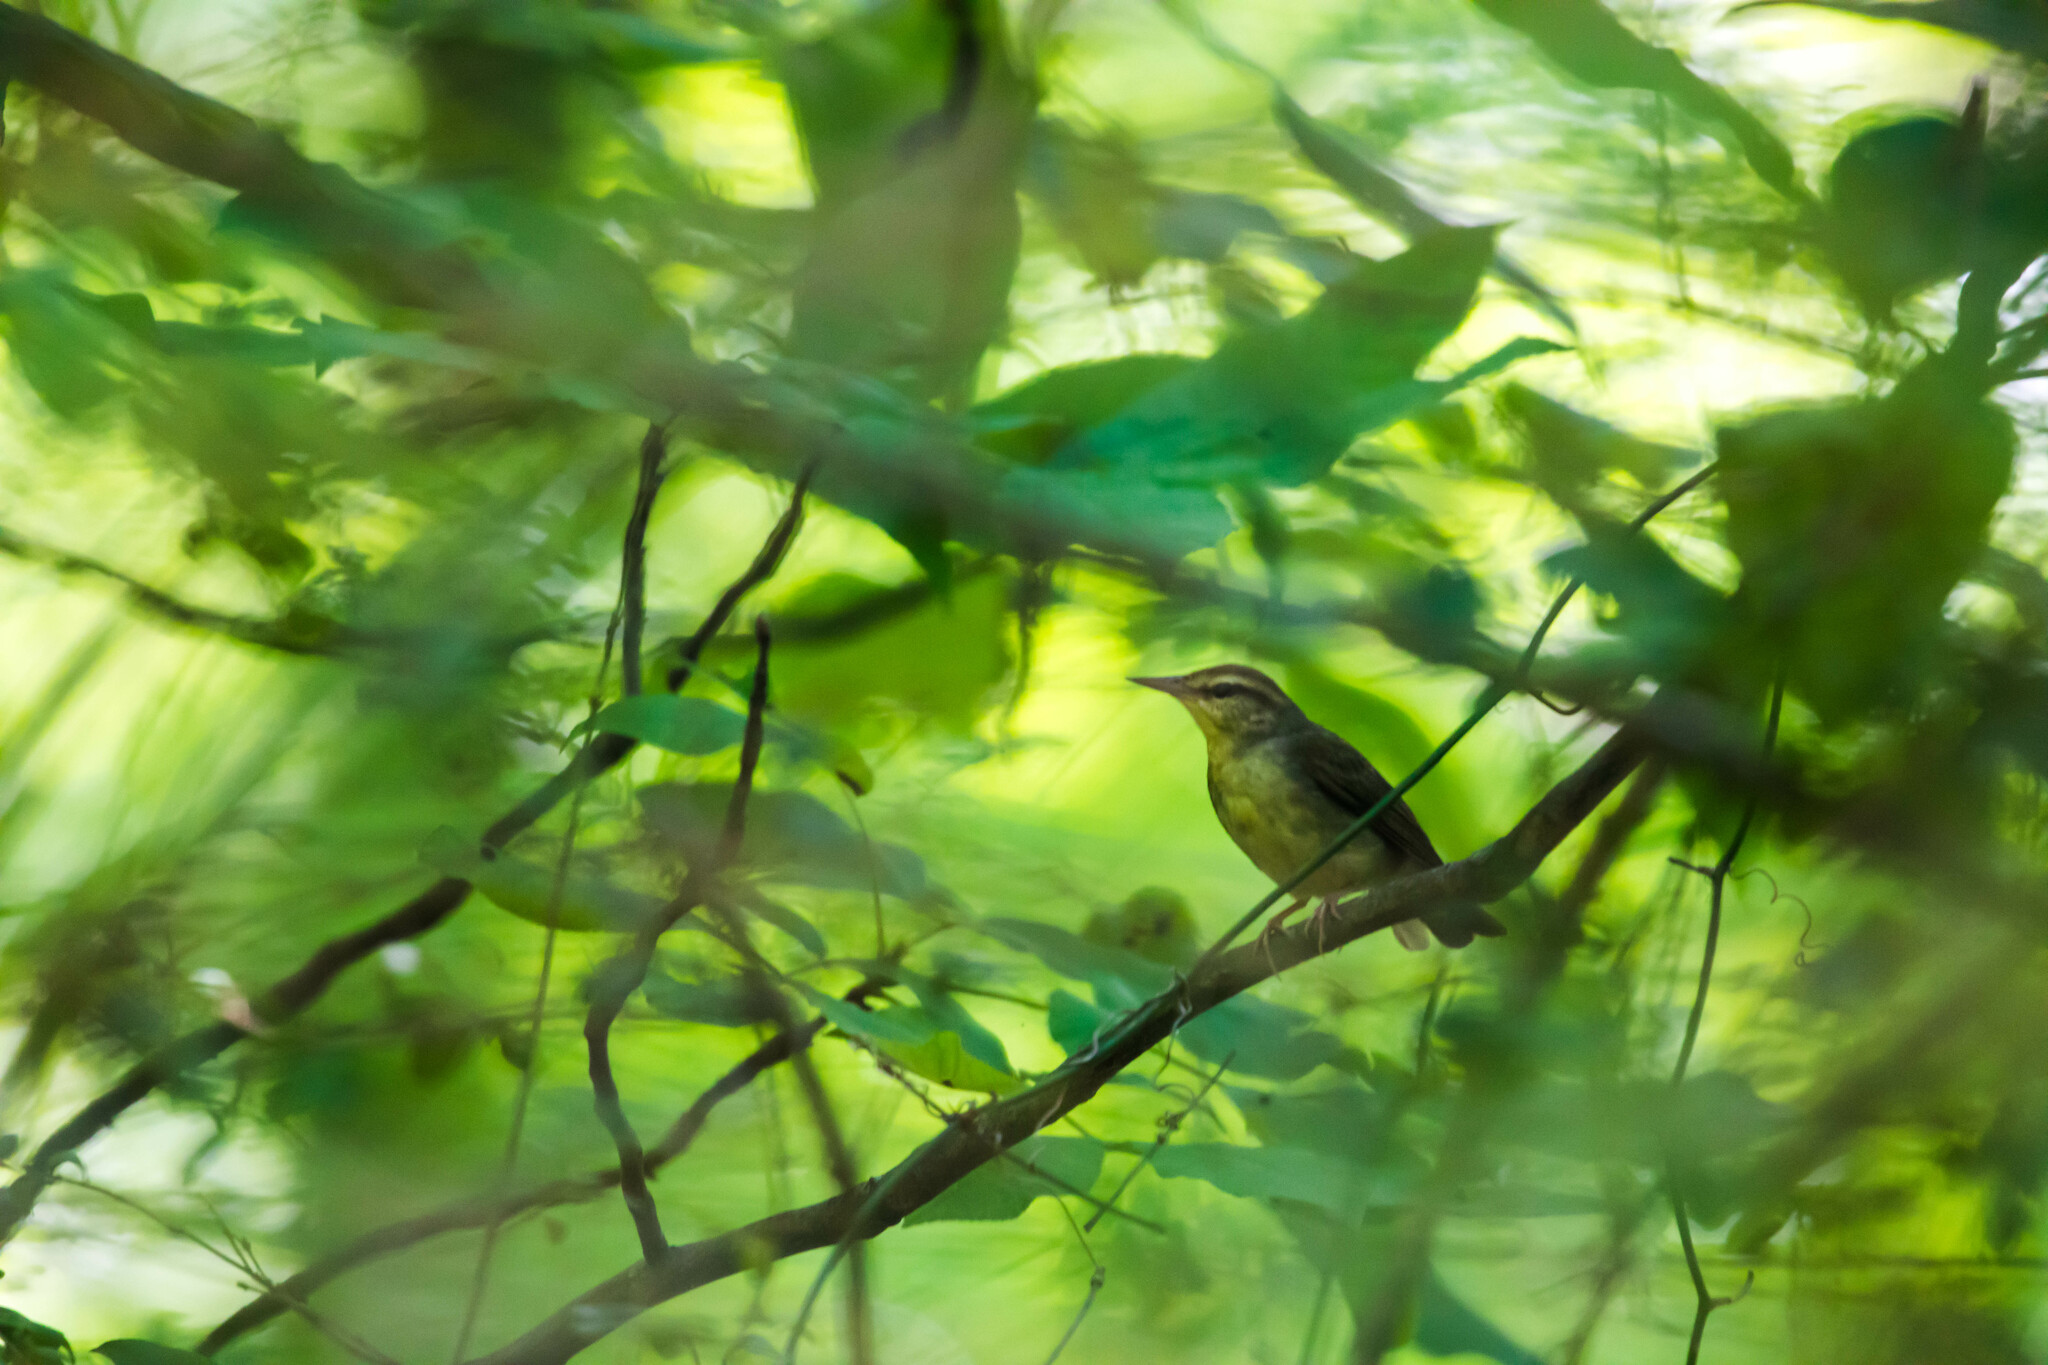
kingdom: Animalia
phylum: Chordata
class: Aves
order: Passeriformes
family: Parulidae
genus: Limnothlypis
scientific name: Limnothlypis swainsonii
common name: Swainson's warbler
